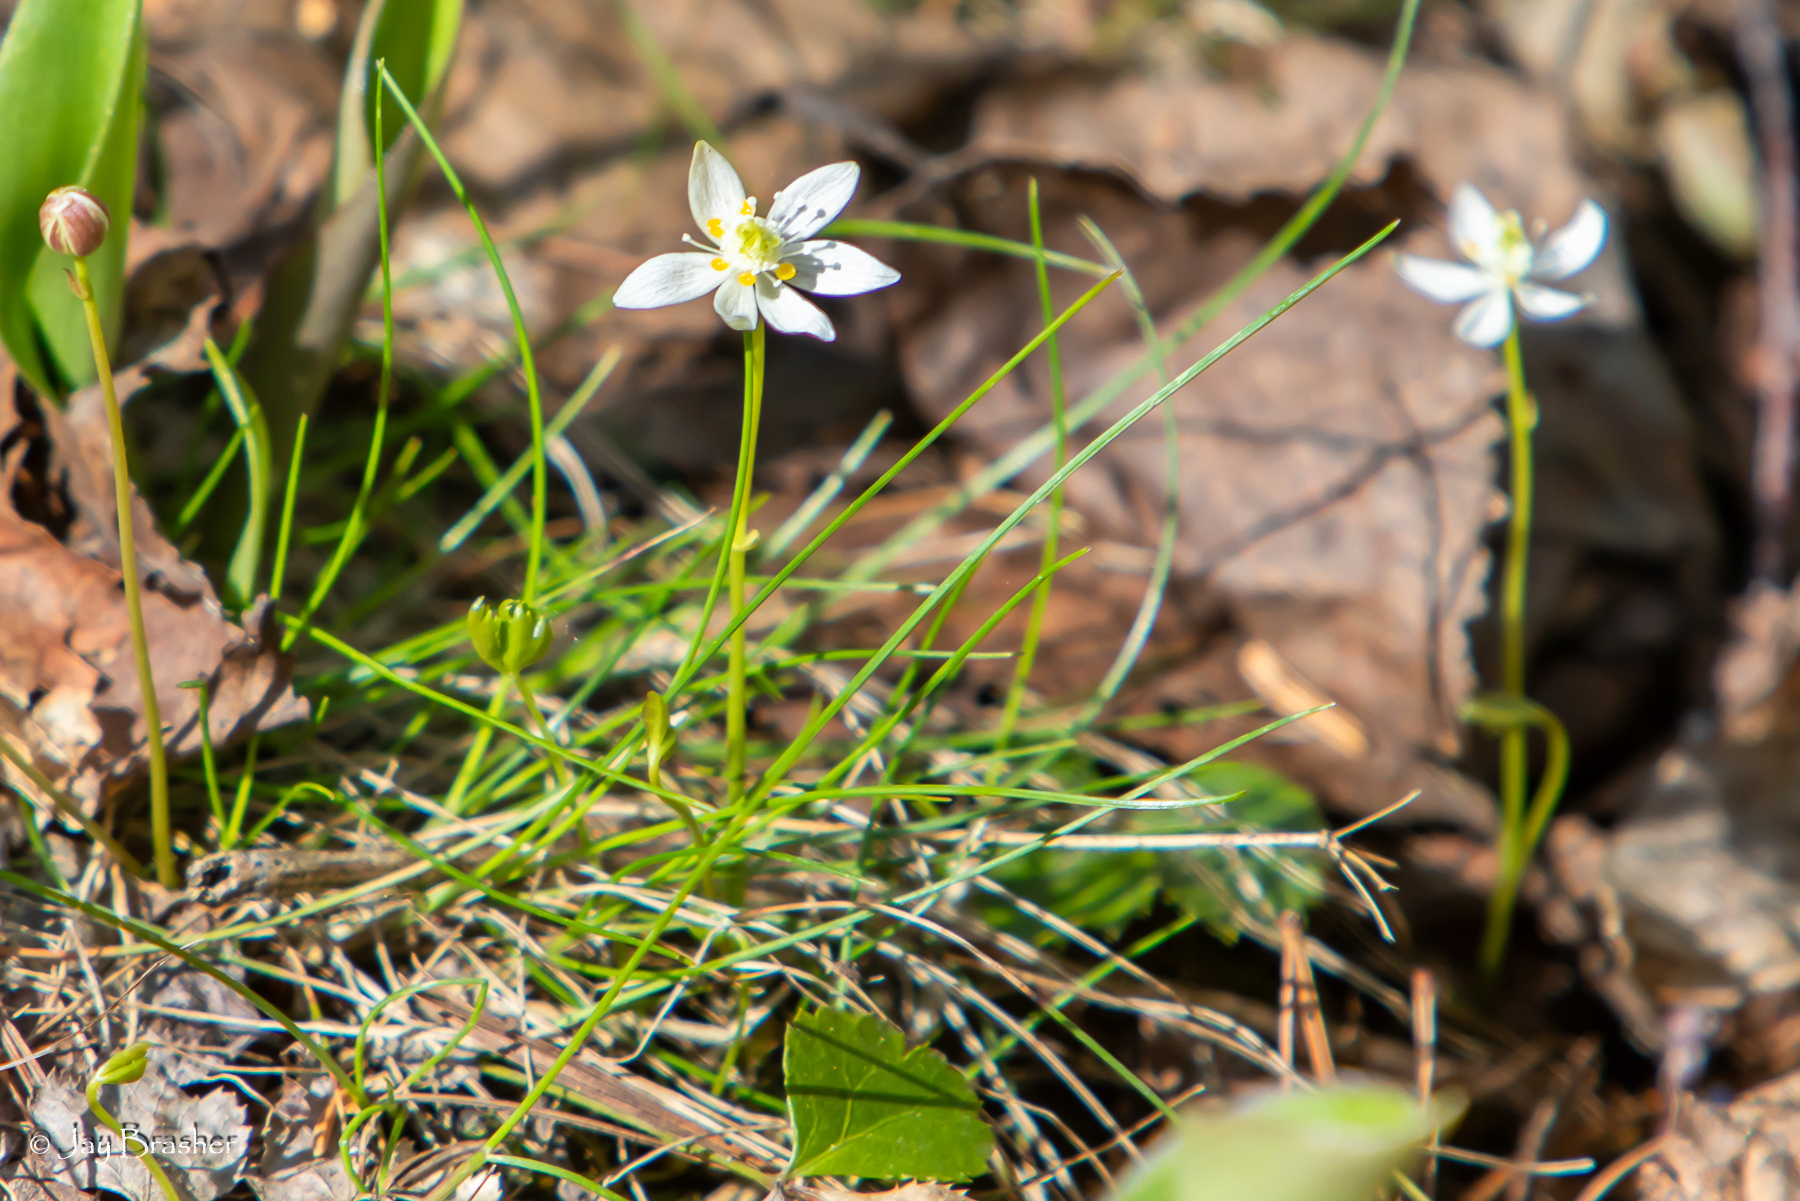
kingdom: Plantae
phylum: Tracheophyta
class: Magnoliopsida
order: Ranunculales
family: Ranunculaceae
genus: Coptis
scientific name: Coptis trifolia
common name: Canker-root
